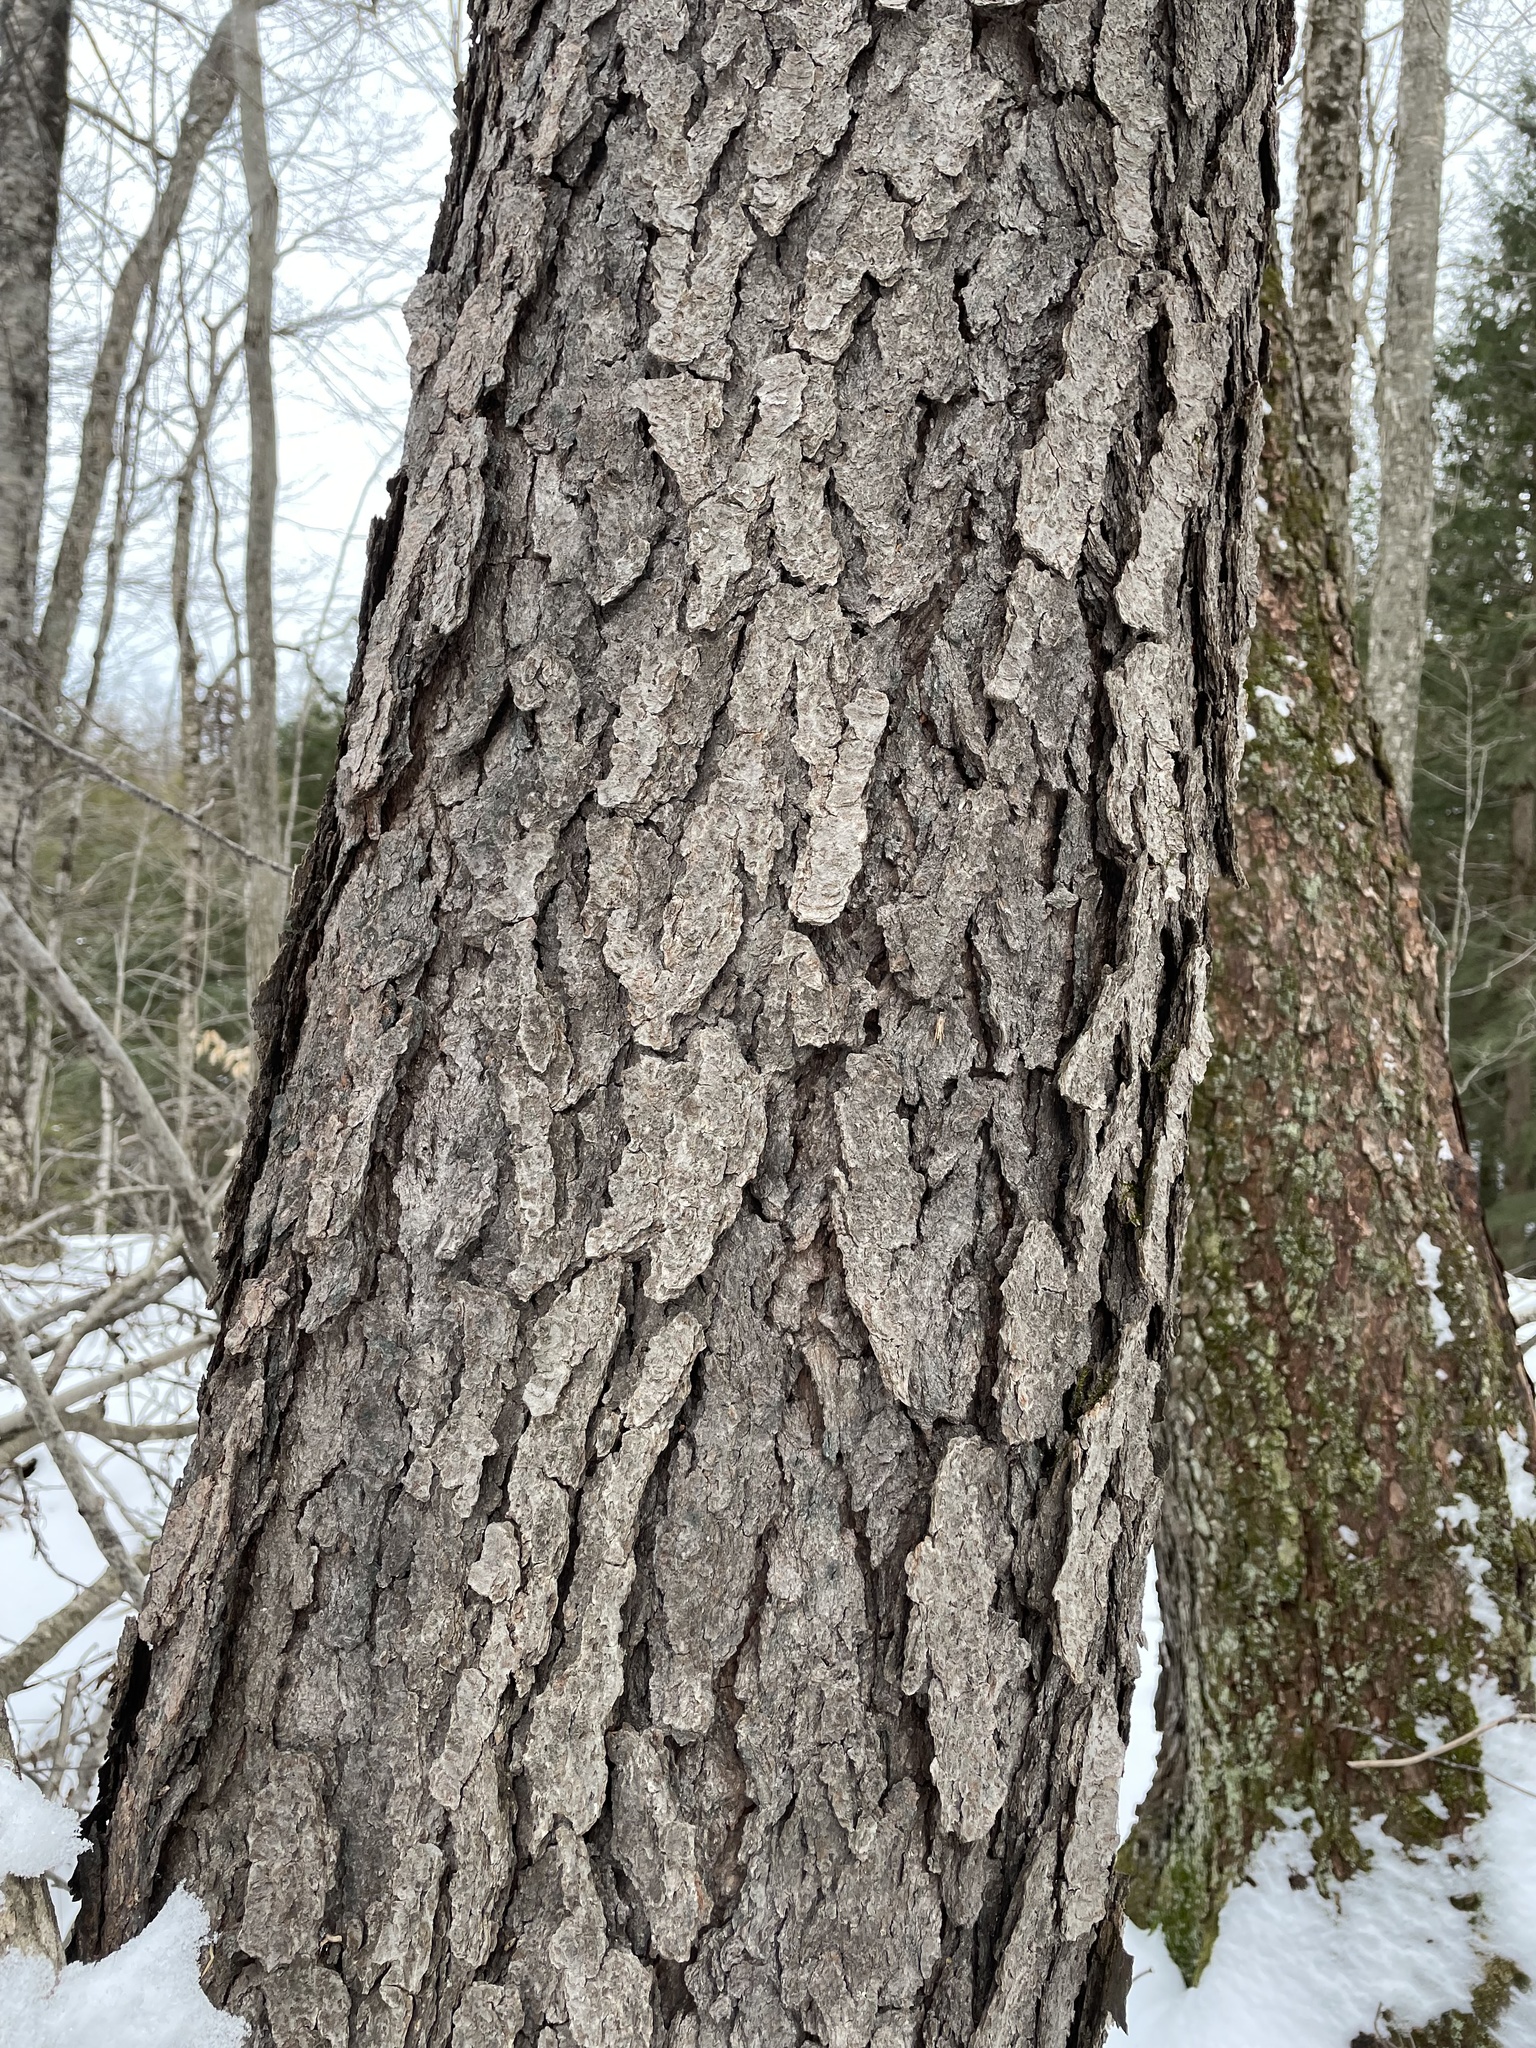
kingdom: Plantae
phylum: Tracheophyta
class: Magnoliopsida
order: Rosales
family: Rosaceae
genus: Prunus
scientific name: Prunus serotina
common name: Black cherry
